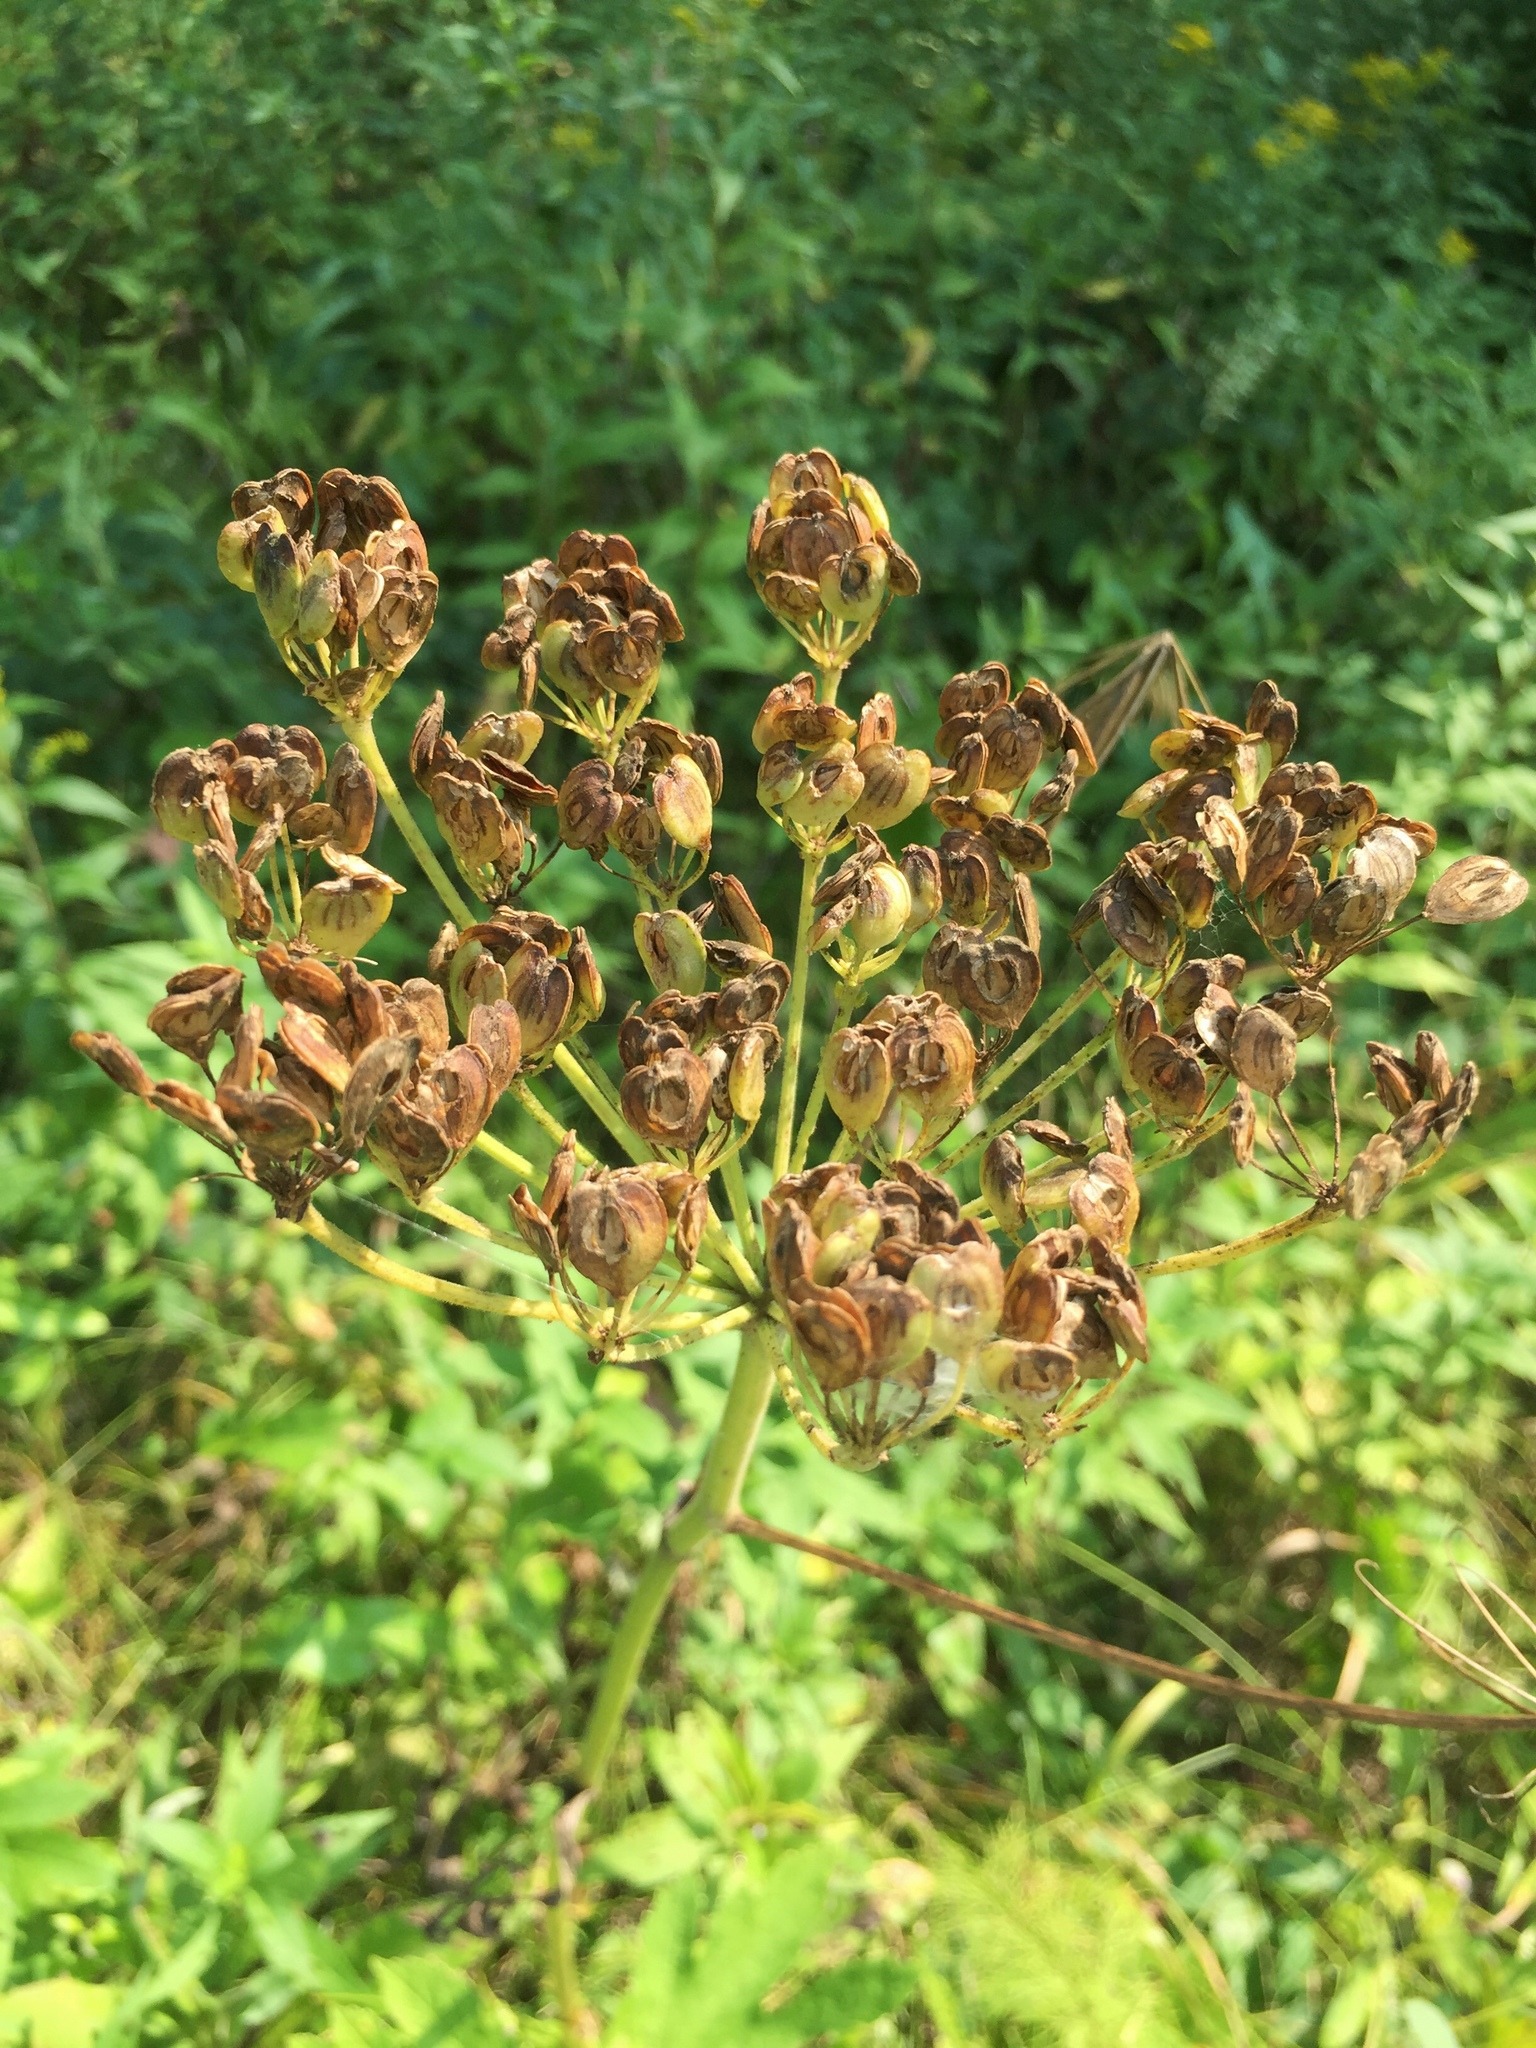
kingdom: Plantae
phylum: Tracheophyta
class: Magnoliopsida
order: Apiales
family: Apiaceae
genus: Heracleum
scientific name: Heracleum maximum
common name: American cow parsnip
